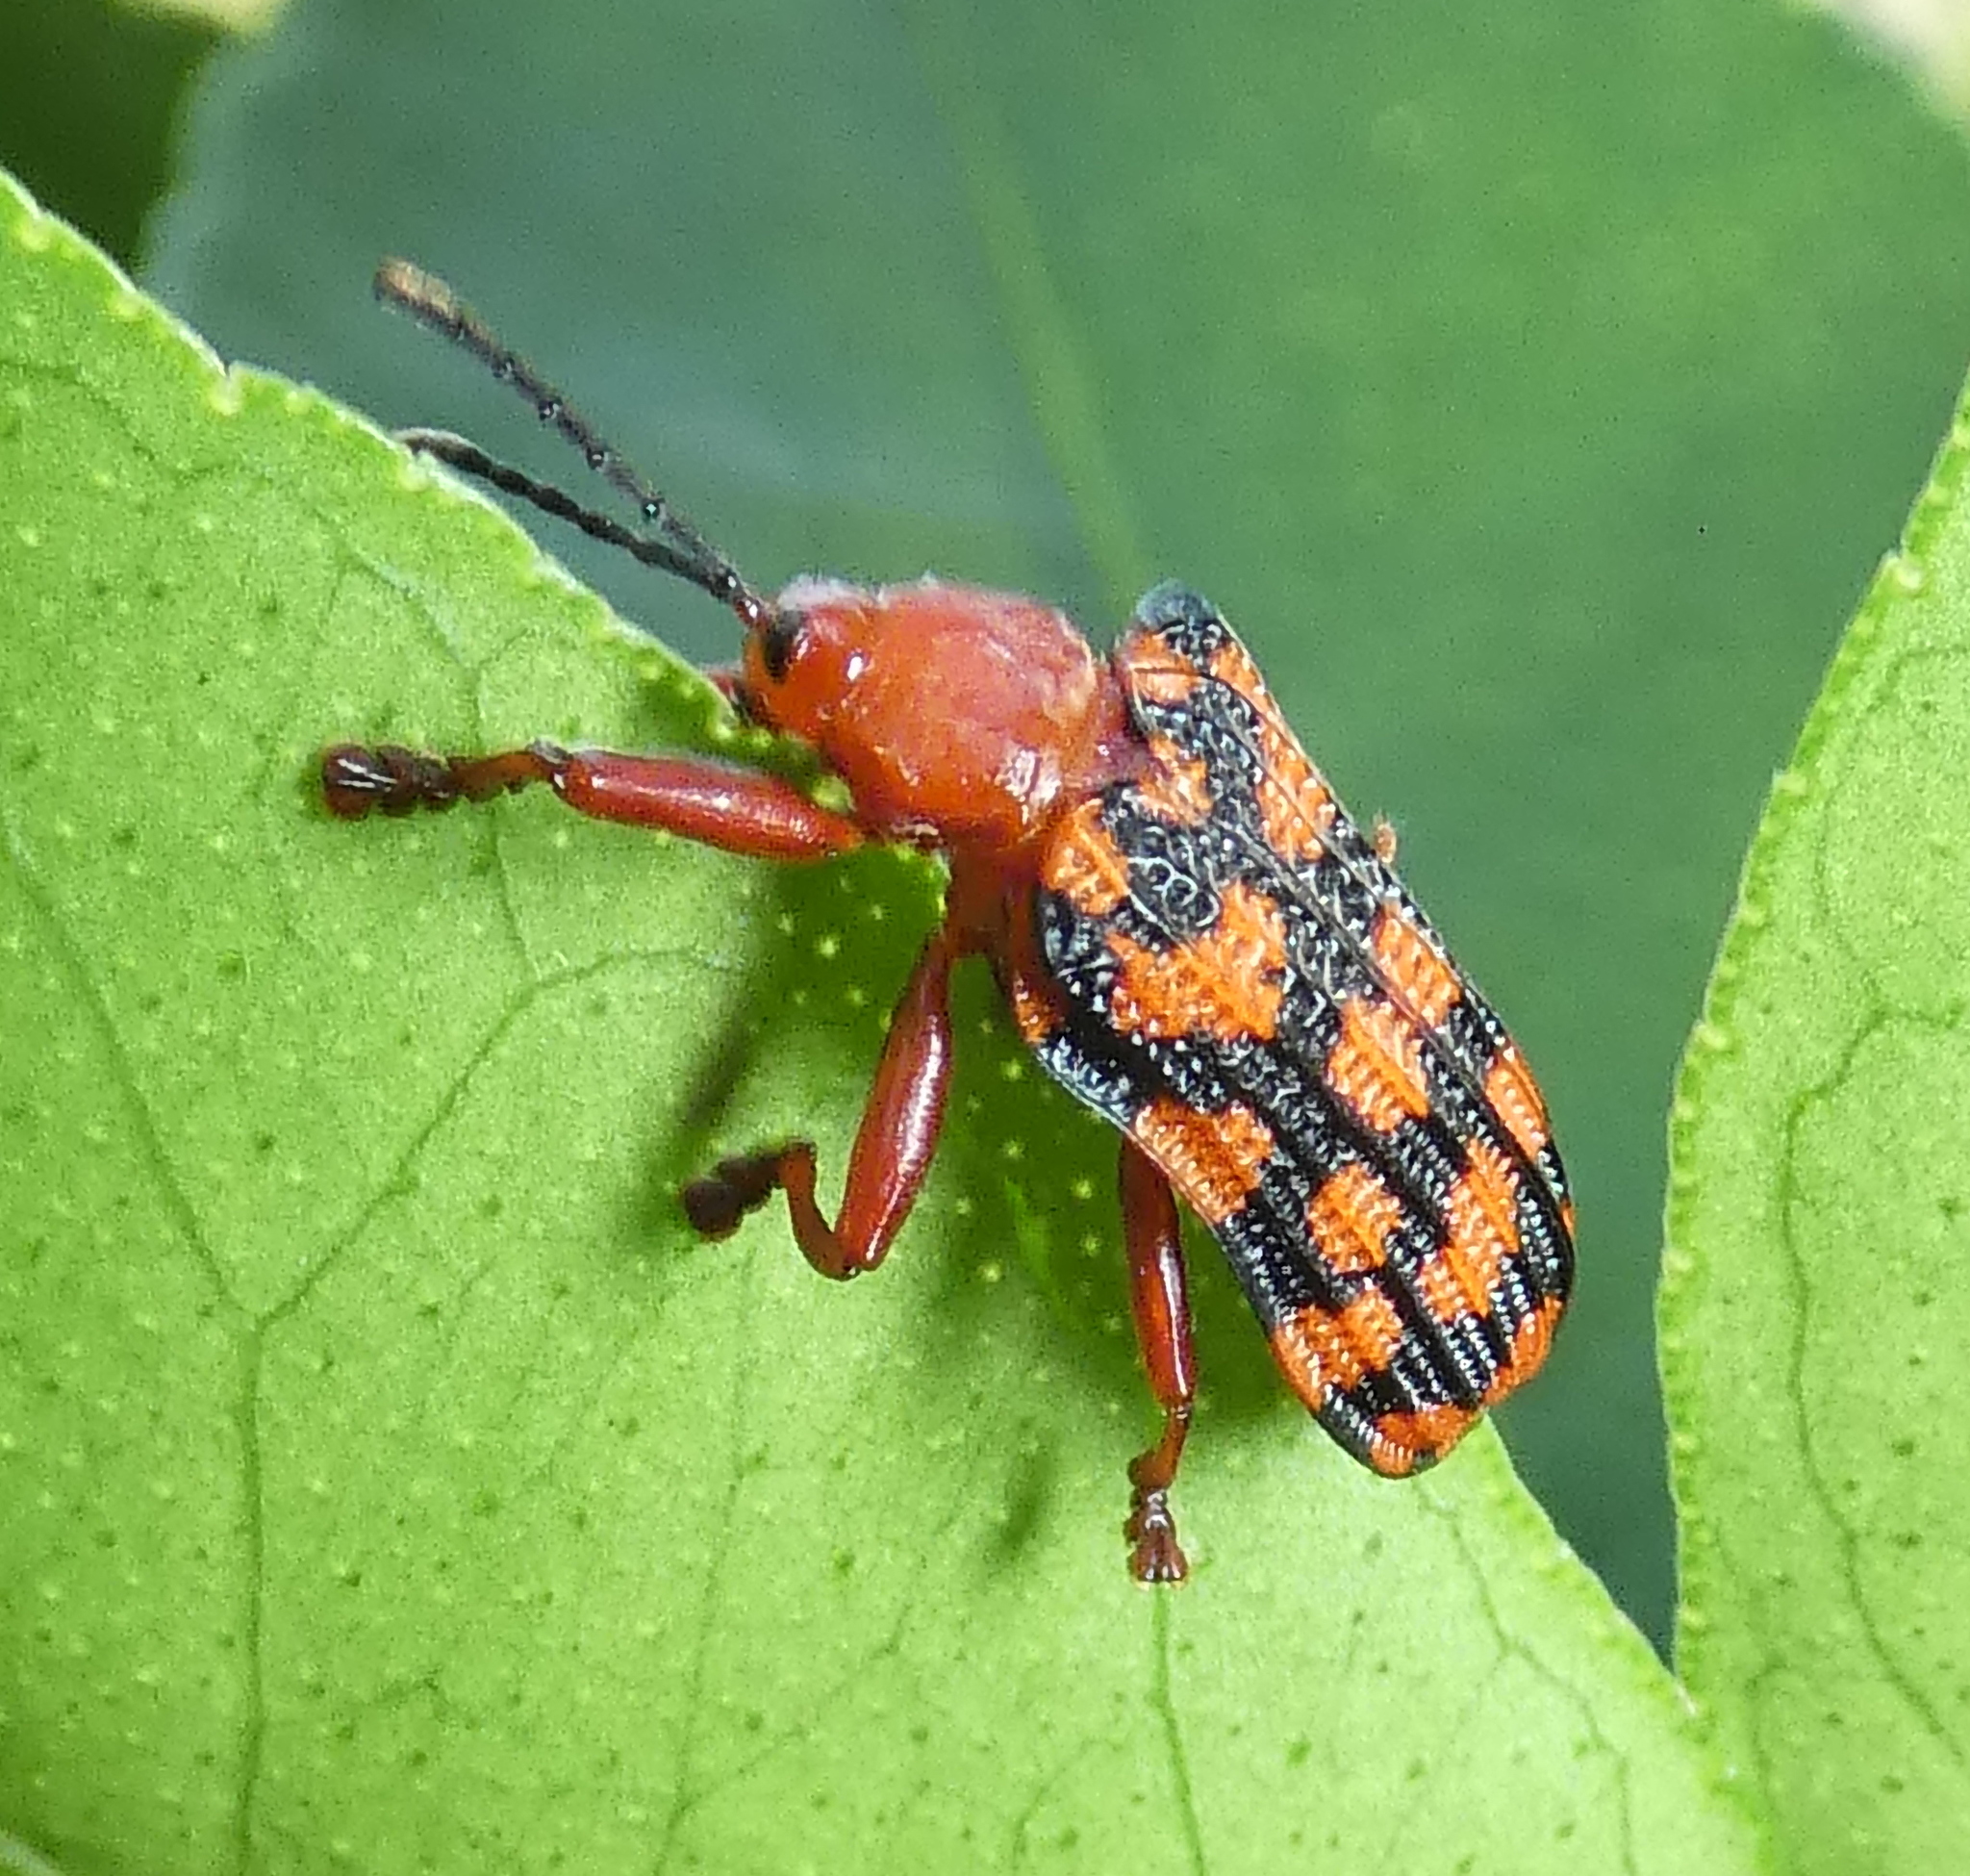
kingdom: Animalia
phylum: Arthropoda
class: Insecta
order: Coleoptera
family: Chrysomelidae
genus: Sceloenopla
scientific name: Sceloenopla maculata
